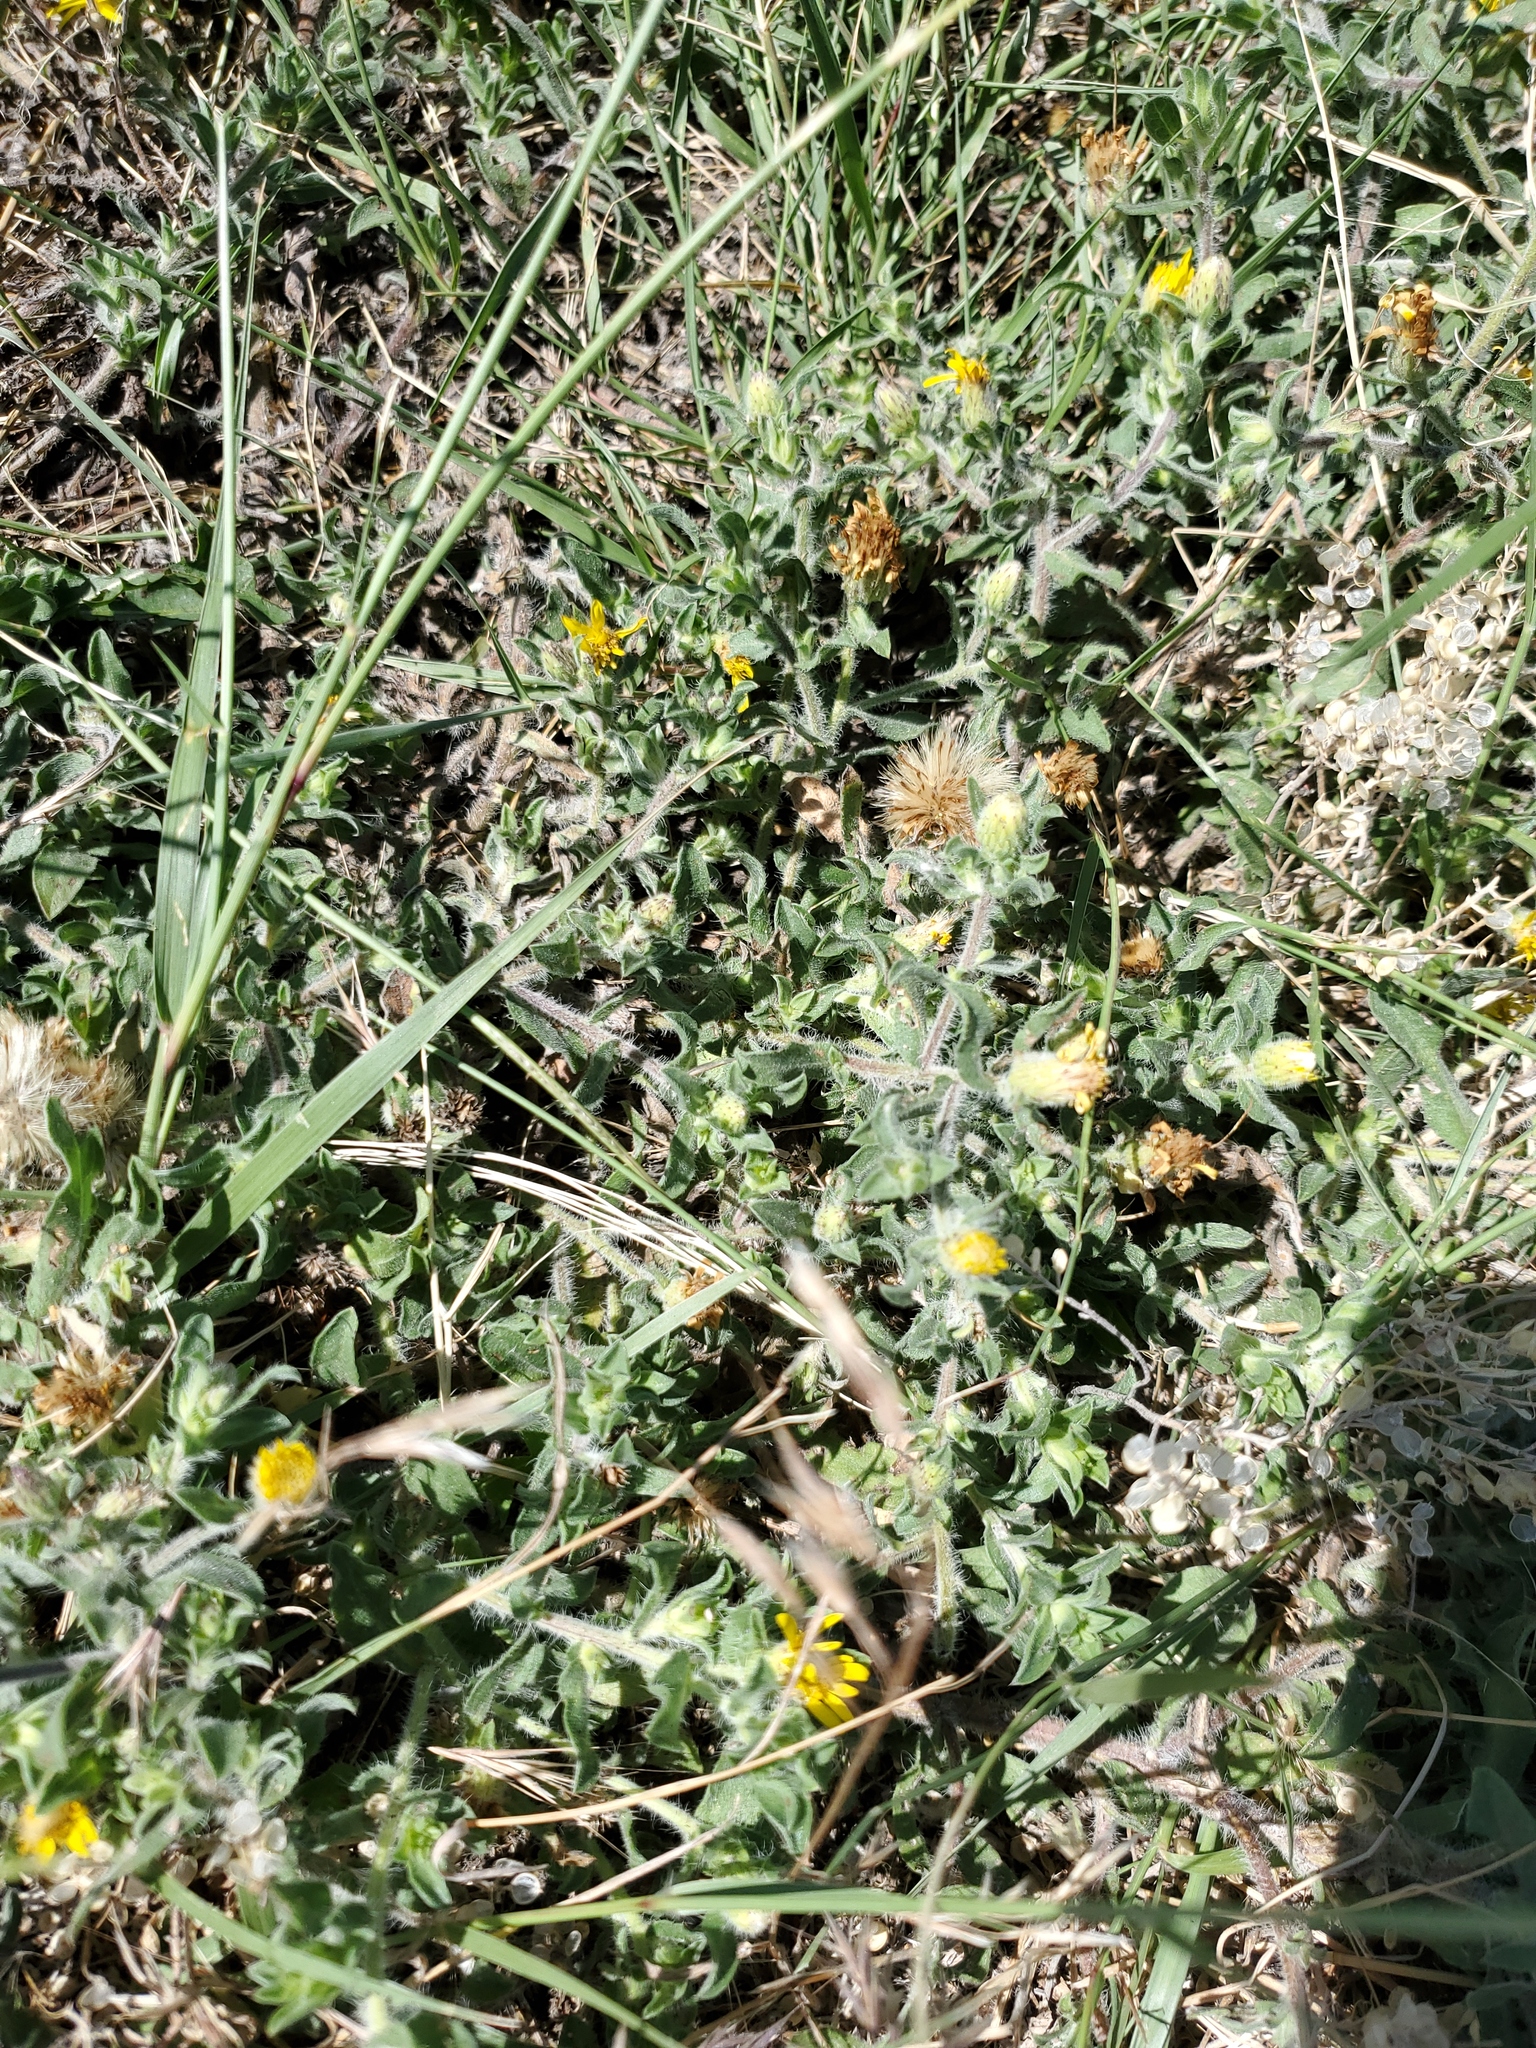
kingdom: Plantae
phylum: Tracheophyta
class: Magnoliopsida
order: Asterales
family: Asteraceae
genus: Heterotheca
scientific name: Heterotheca villosa
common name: Hairy false goldenaster
